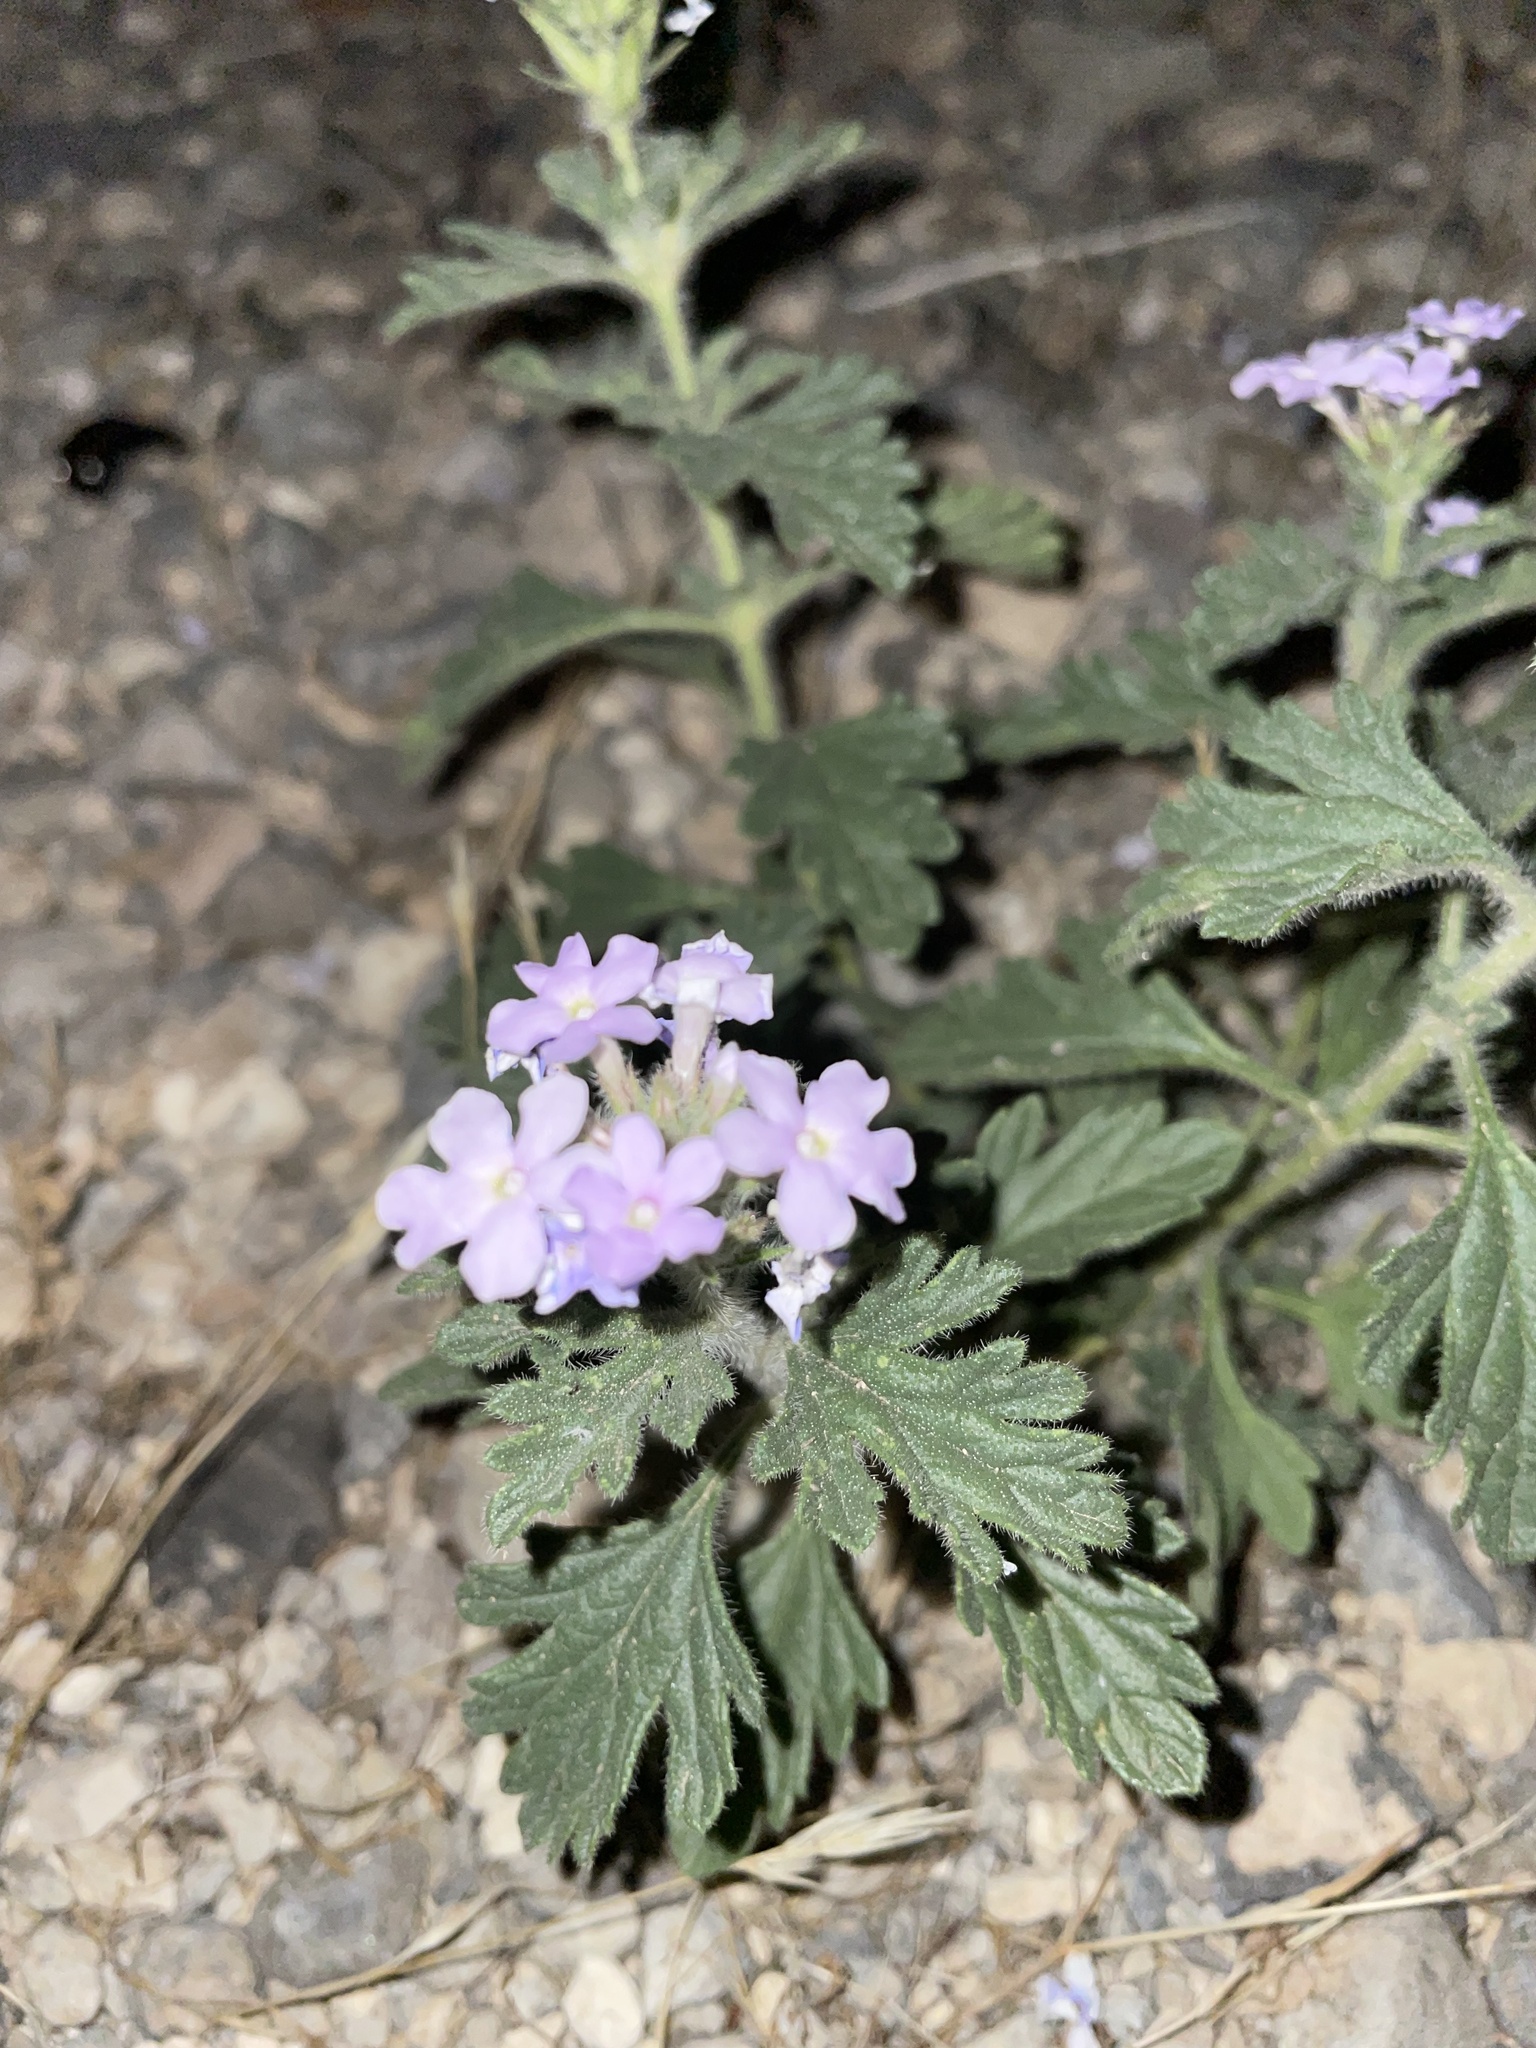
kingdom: Plantae
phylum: Tracheophyta
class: Magnoliopsida
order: Lamiales
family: Verbenaceae
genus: Verbena
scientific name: Verbena gooddingii
